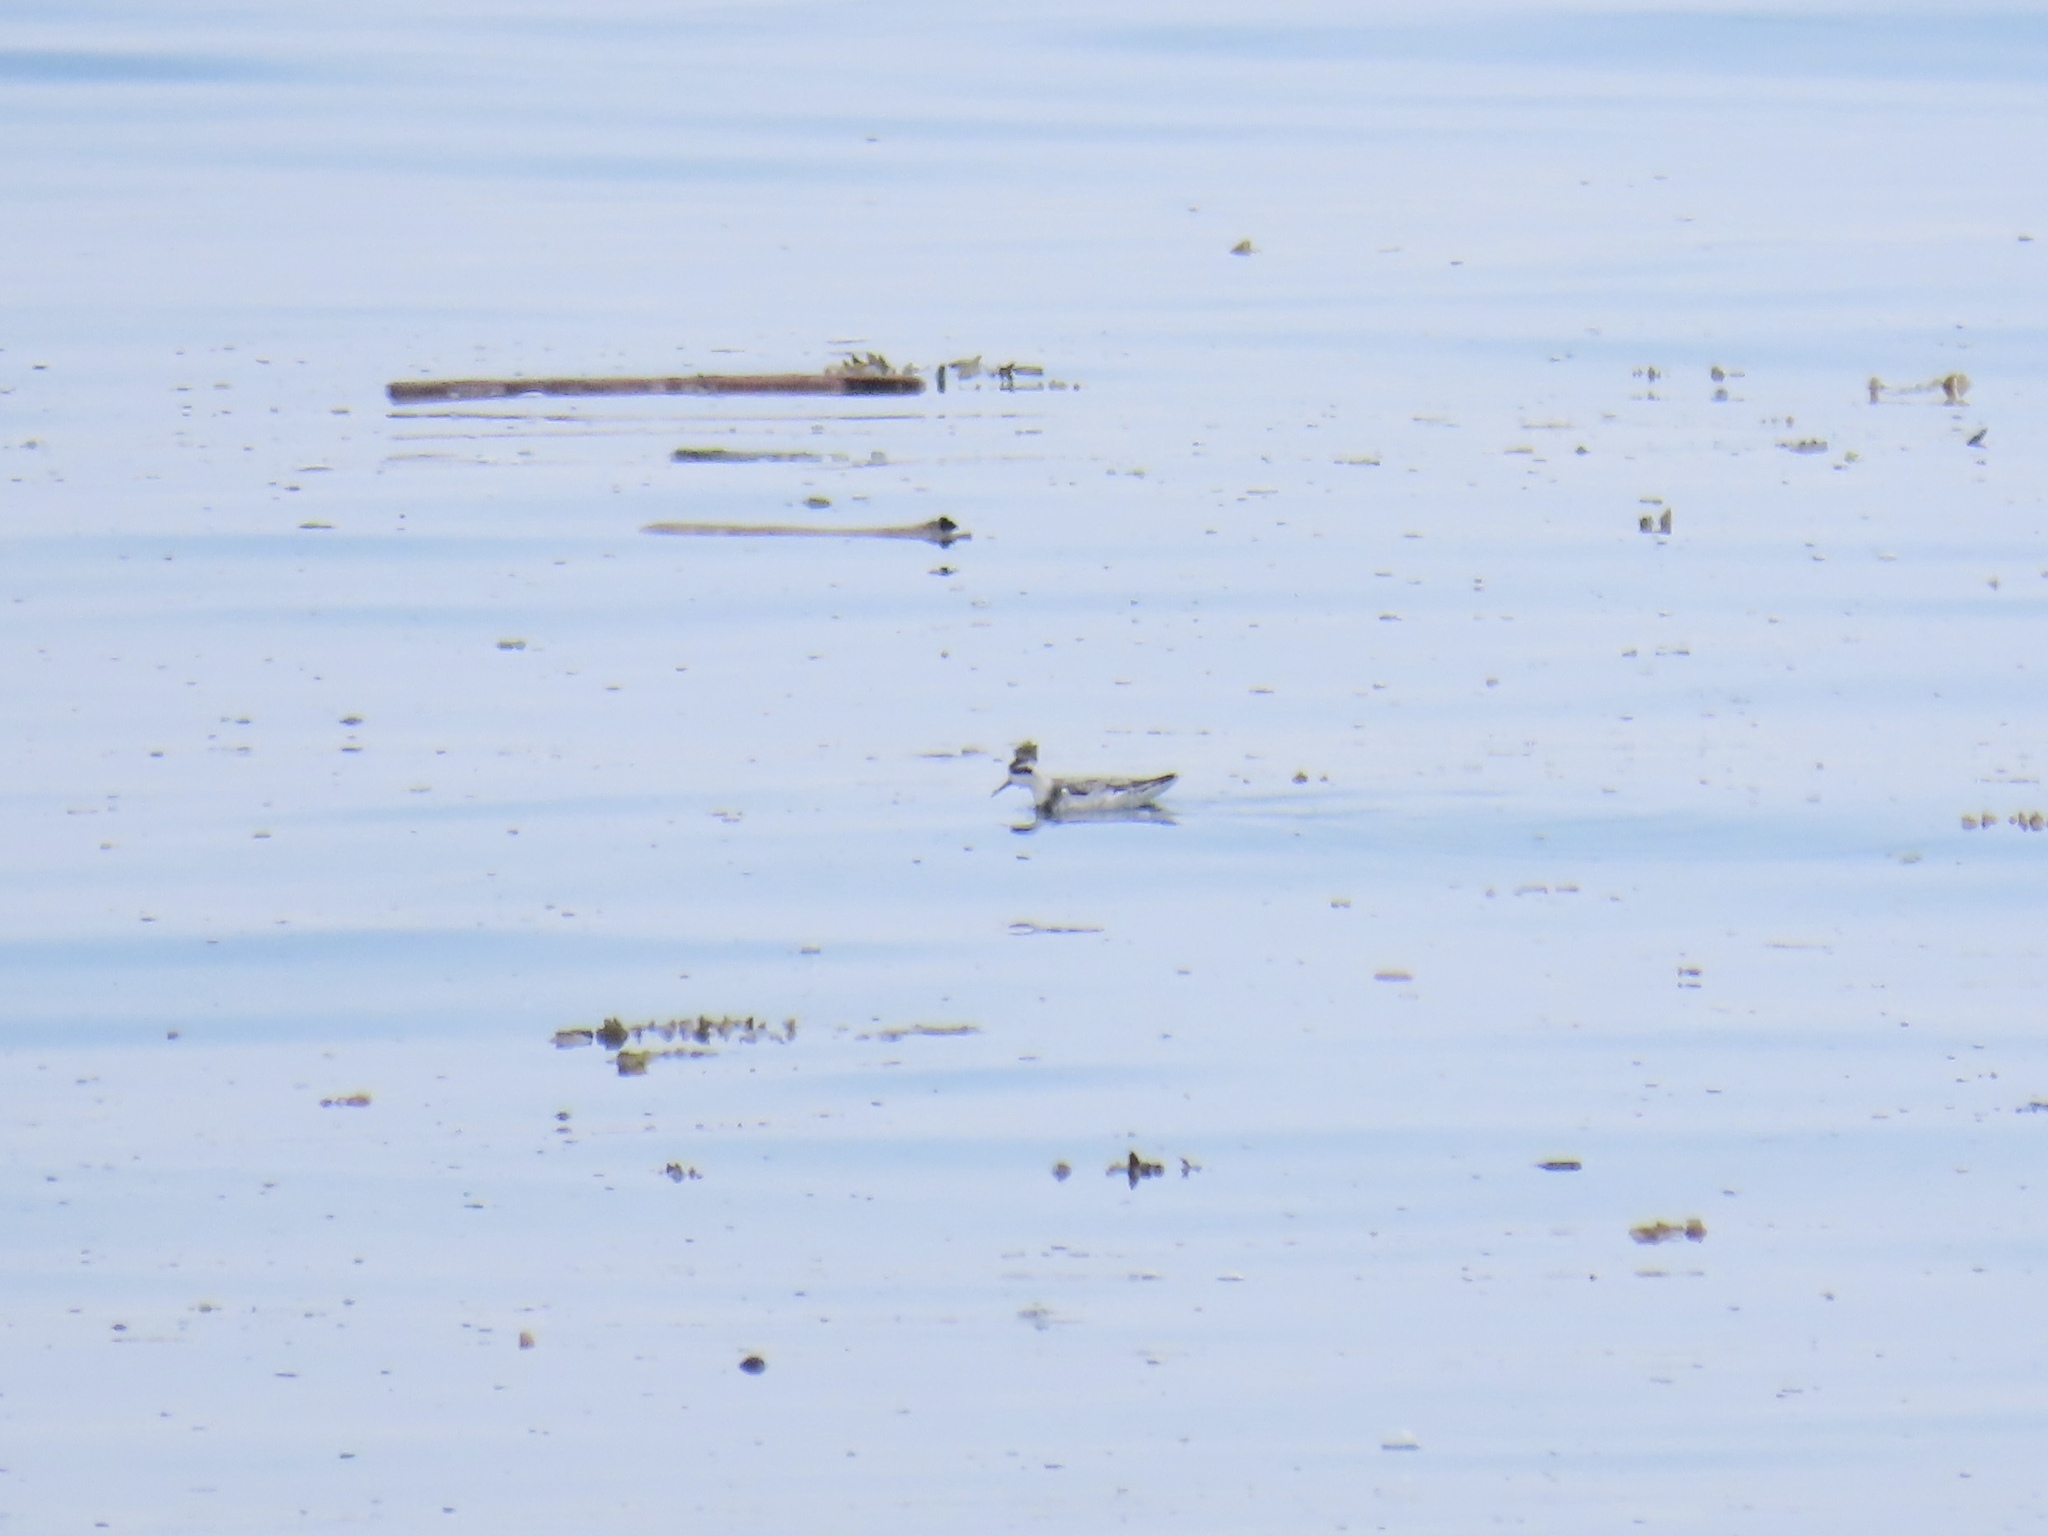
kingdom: Animalia
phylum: Chordata
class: Aves
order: Charadriiformes
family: Scolopacidae
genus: Phalaropus
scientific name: Phalaropus lobatus
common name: Red-necked phalarope
